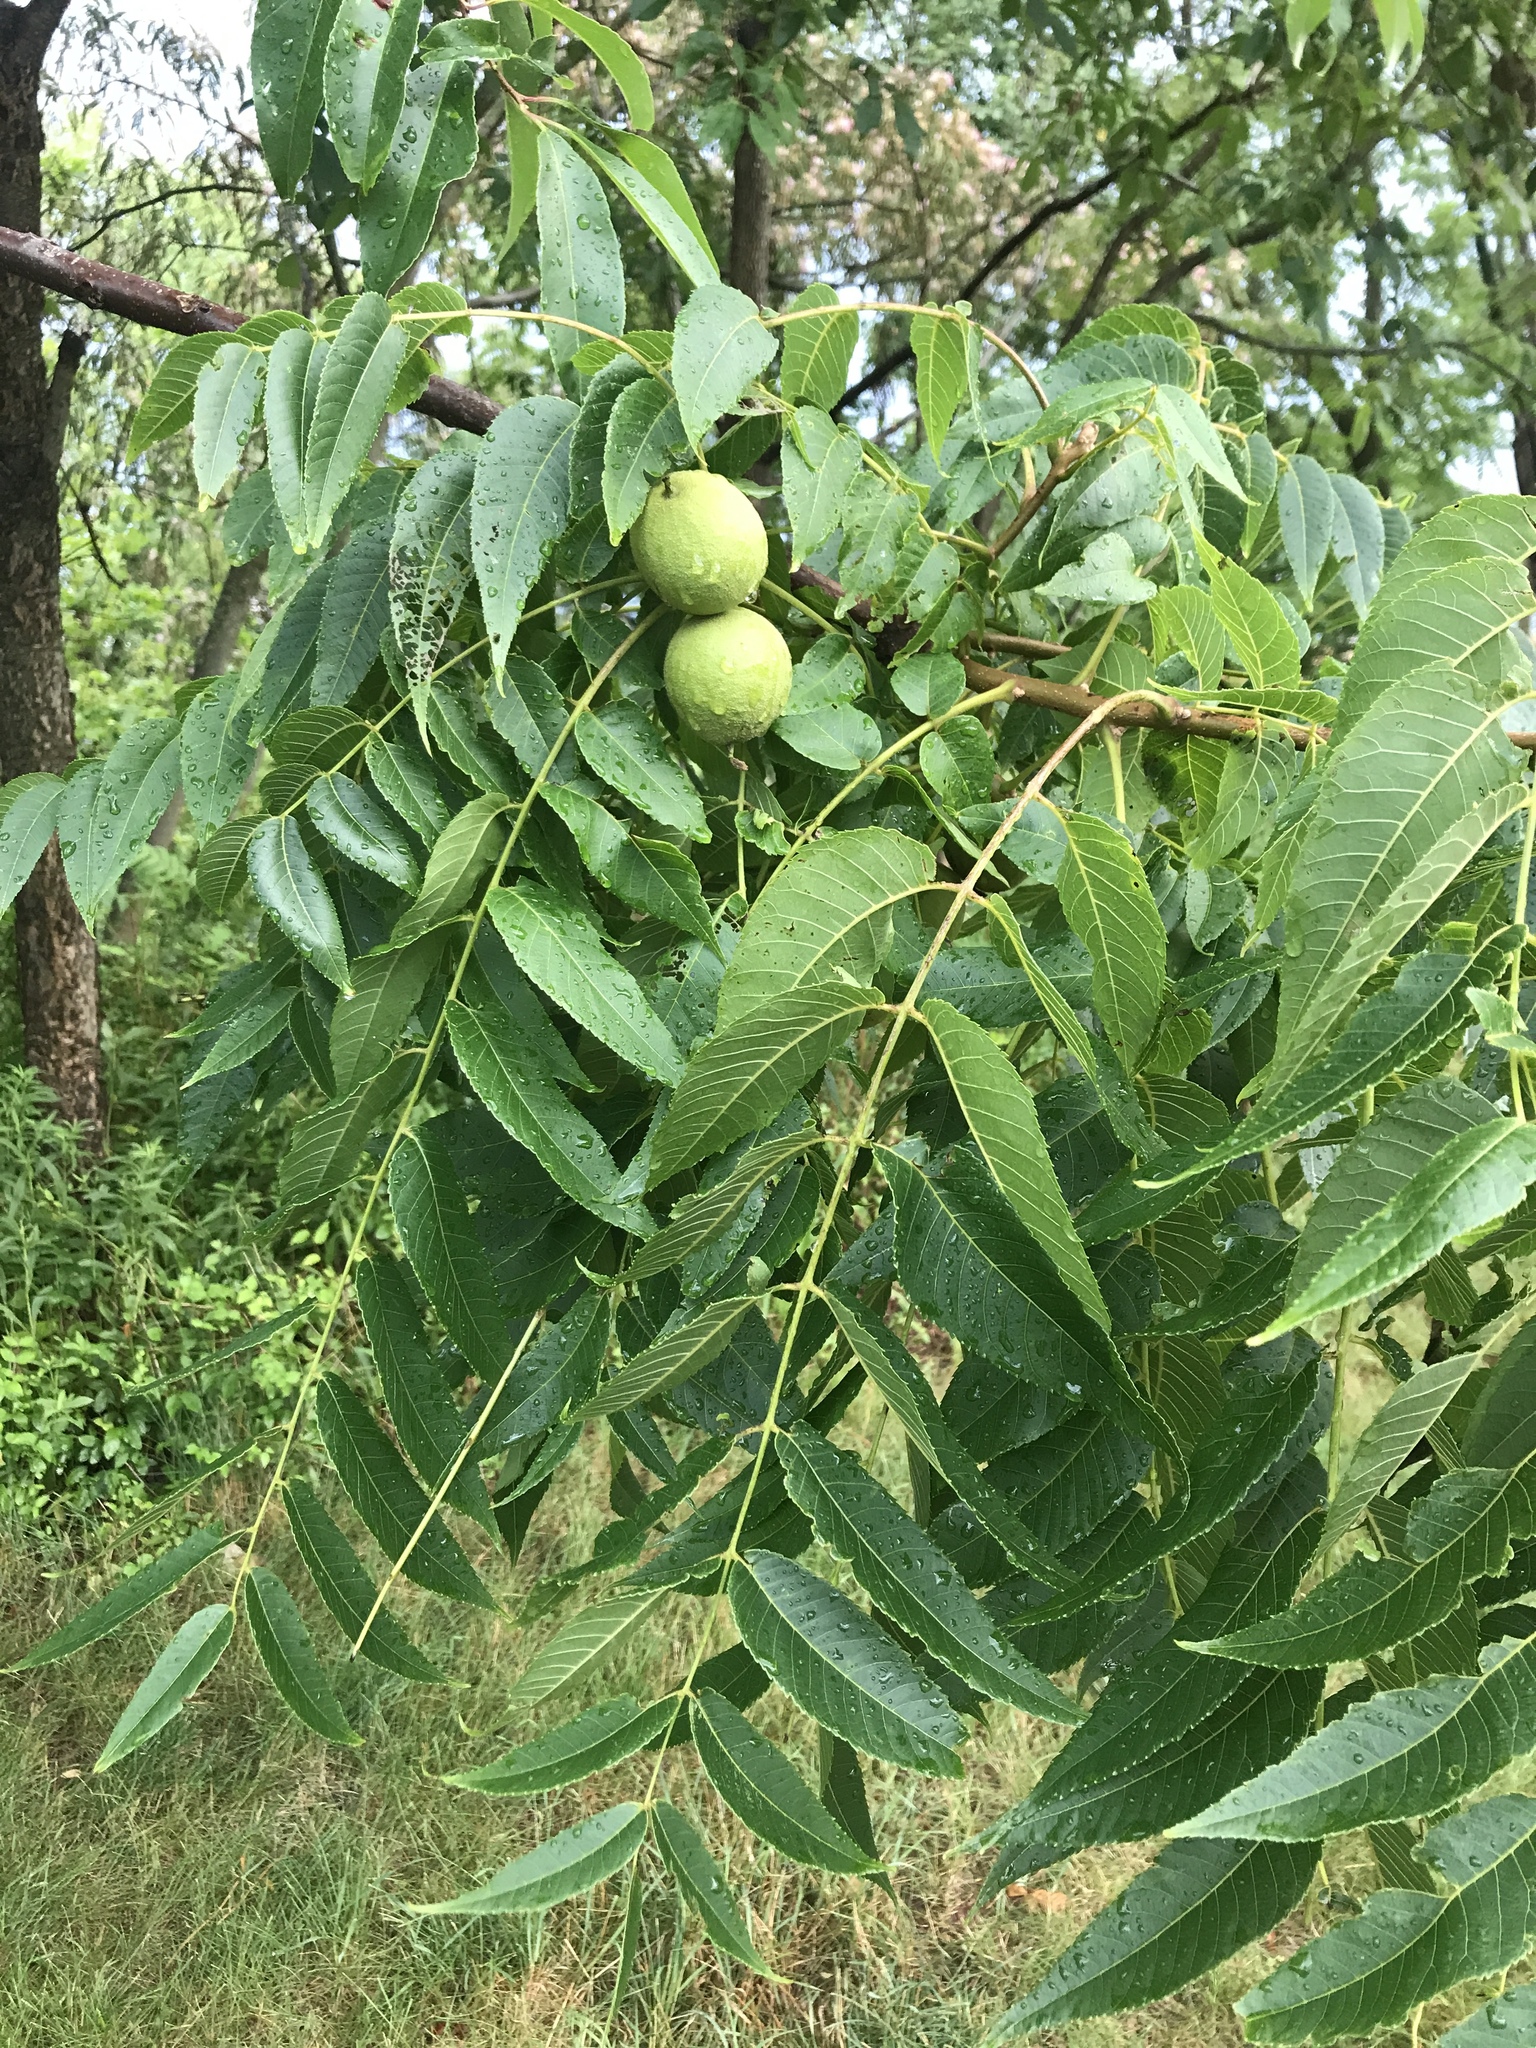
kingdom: Plantae
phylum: Tracheophyta
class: Magnoliopsida
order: Fagales
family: Juglandaceae
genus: Juglans
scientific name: Juglans nigra
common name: Black walnut
